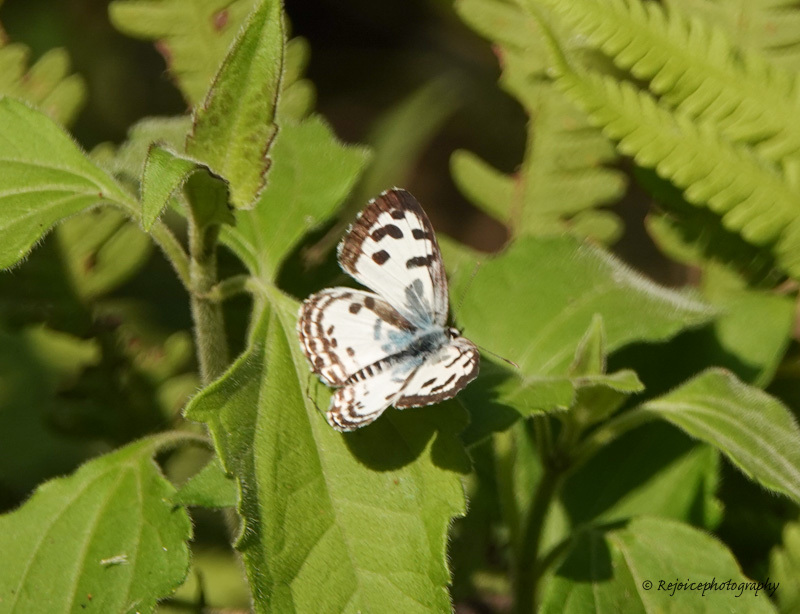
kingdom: Animalia
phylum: Arthropoda
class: Insecta
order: Lepidoptera
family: Lycaenidae
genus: Castalius
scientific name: Castalius rosimon
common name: Common pierrot
